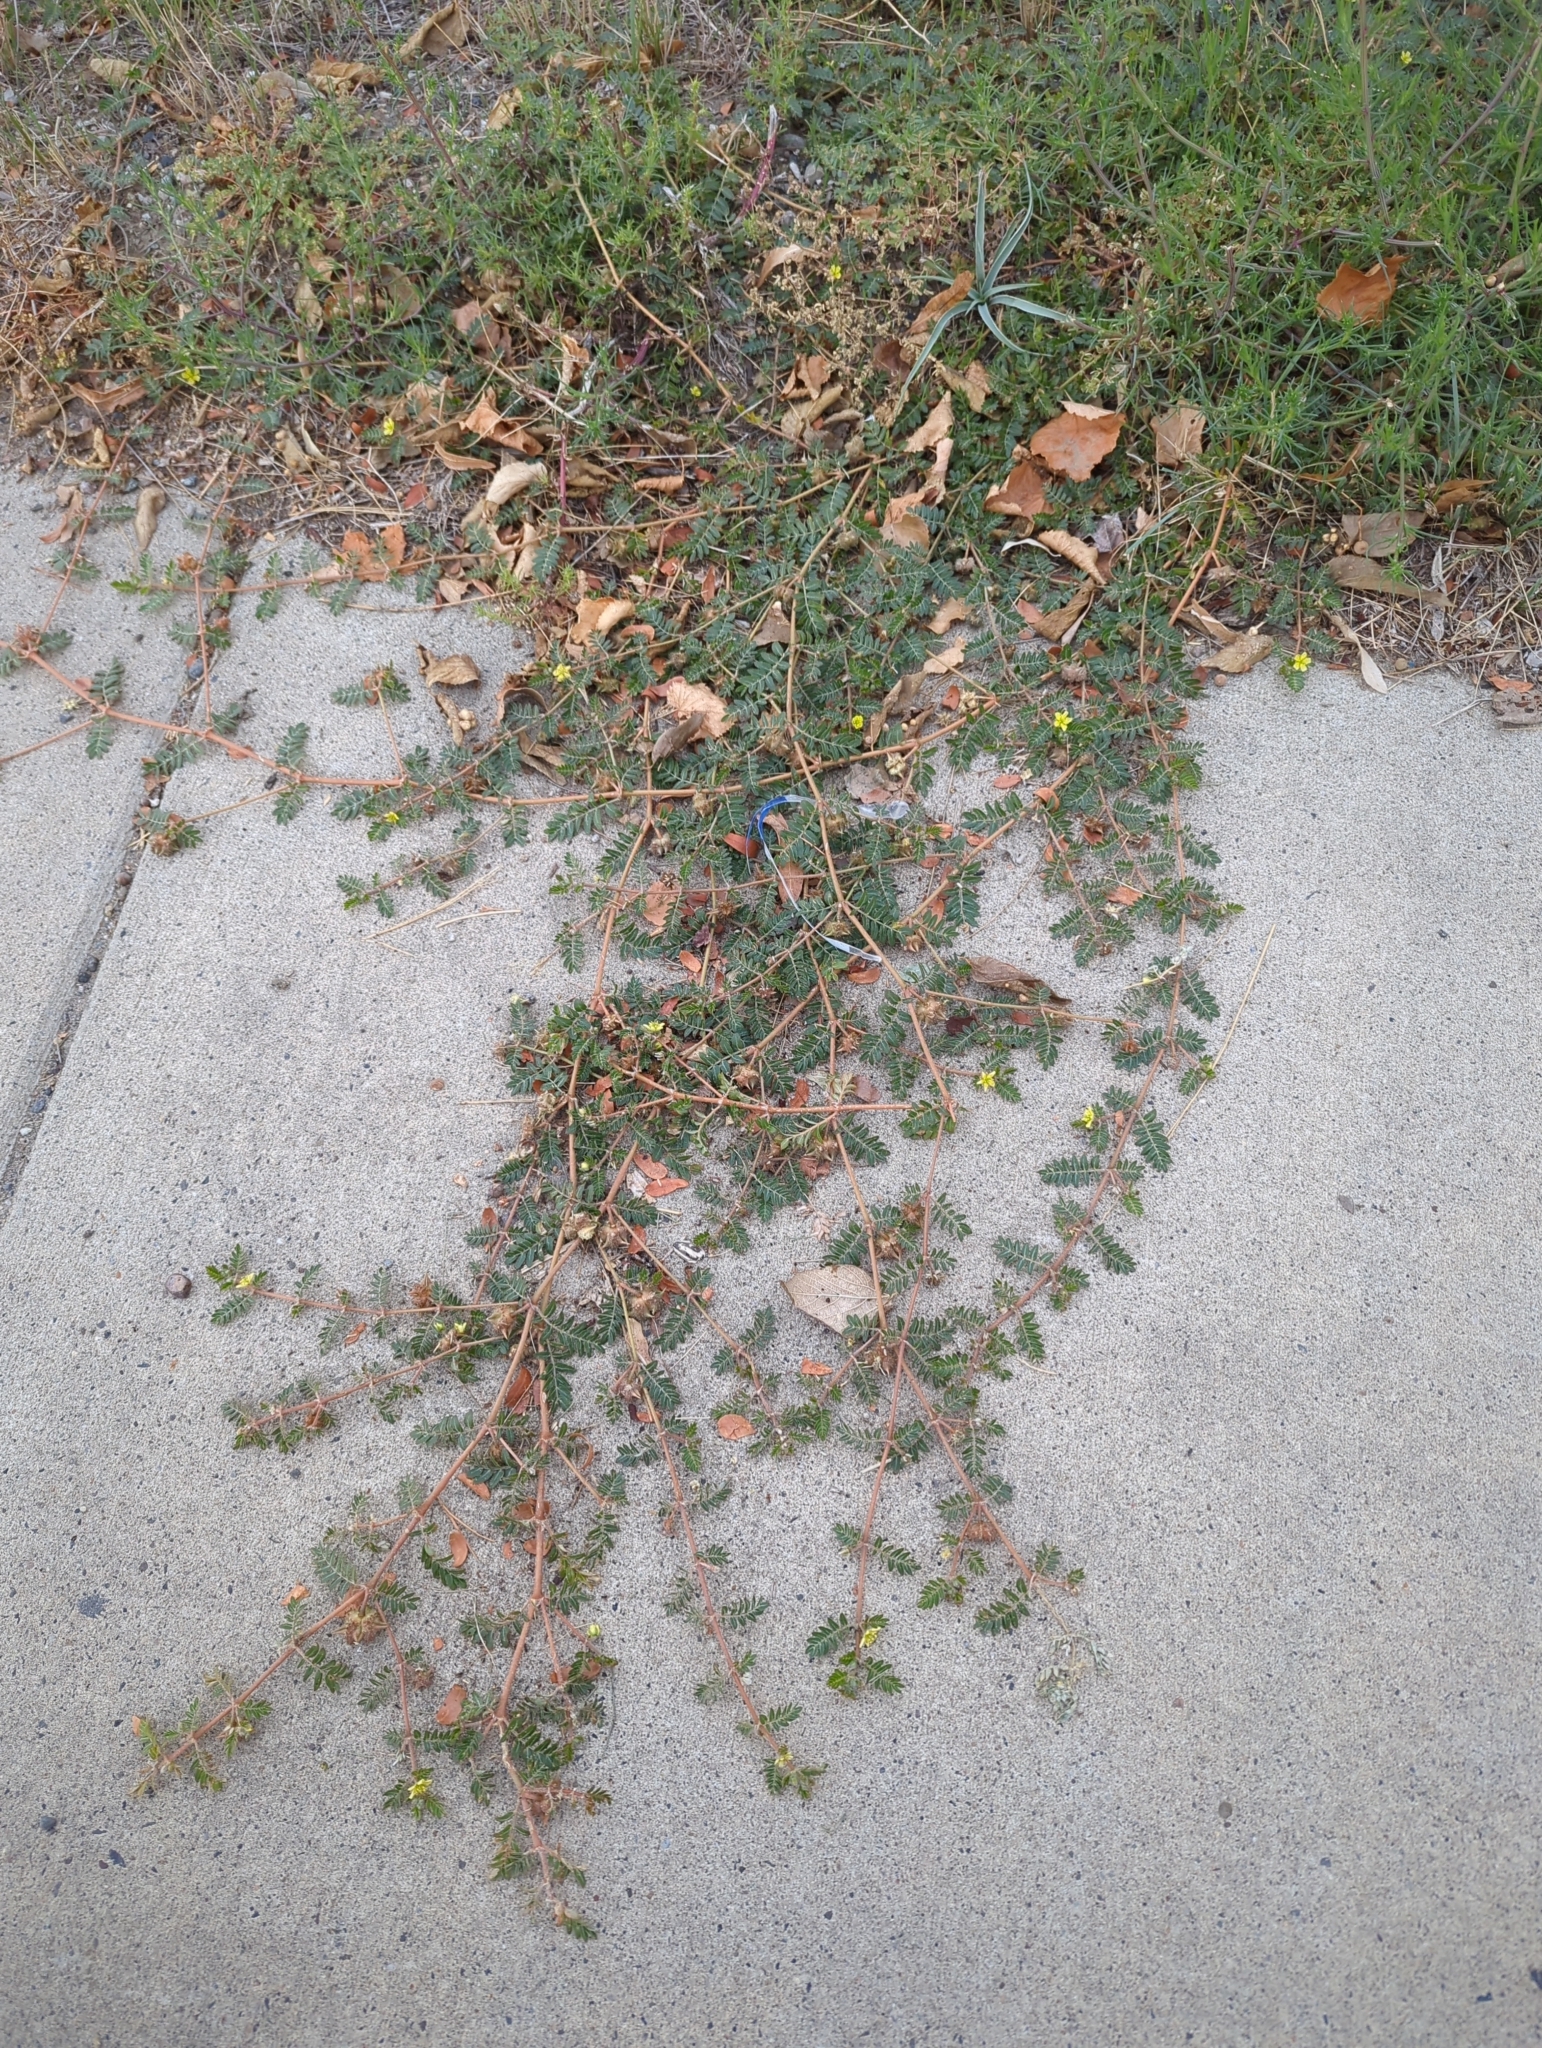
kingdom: Plantae
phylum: Tracheophyta
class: Magnoliopsida
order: Zygophyllales
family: Zygophyllaceae
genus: Tribulus
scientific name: Tribulus terrestris
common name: Puncturevine
